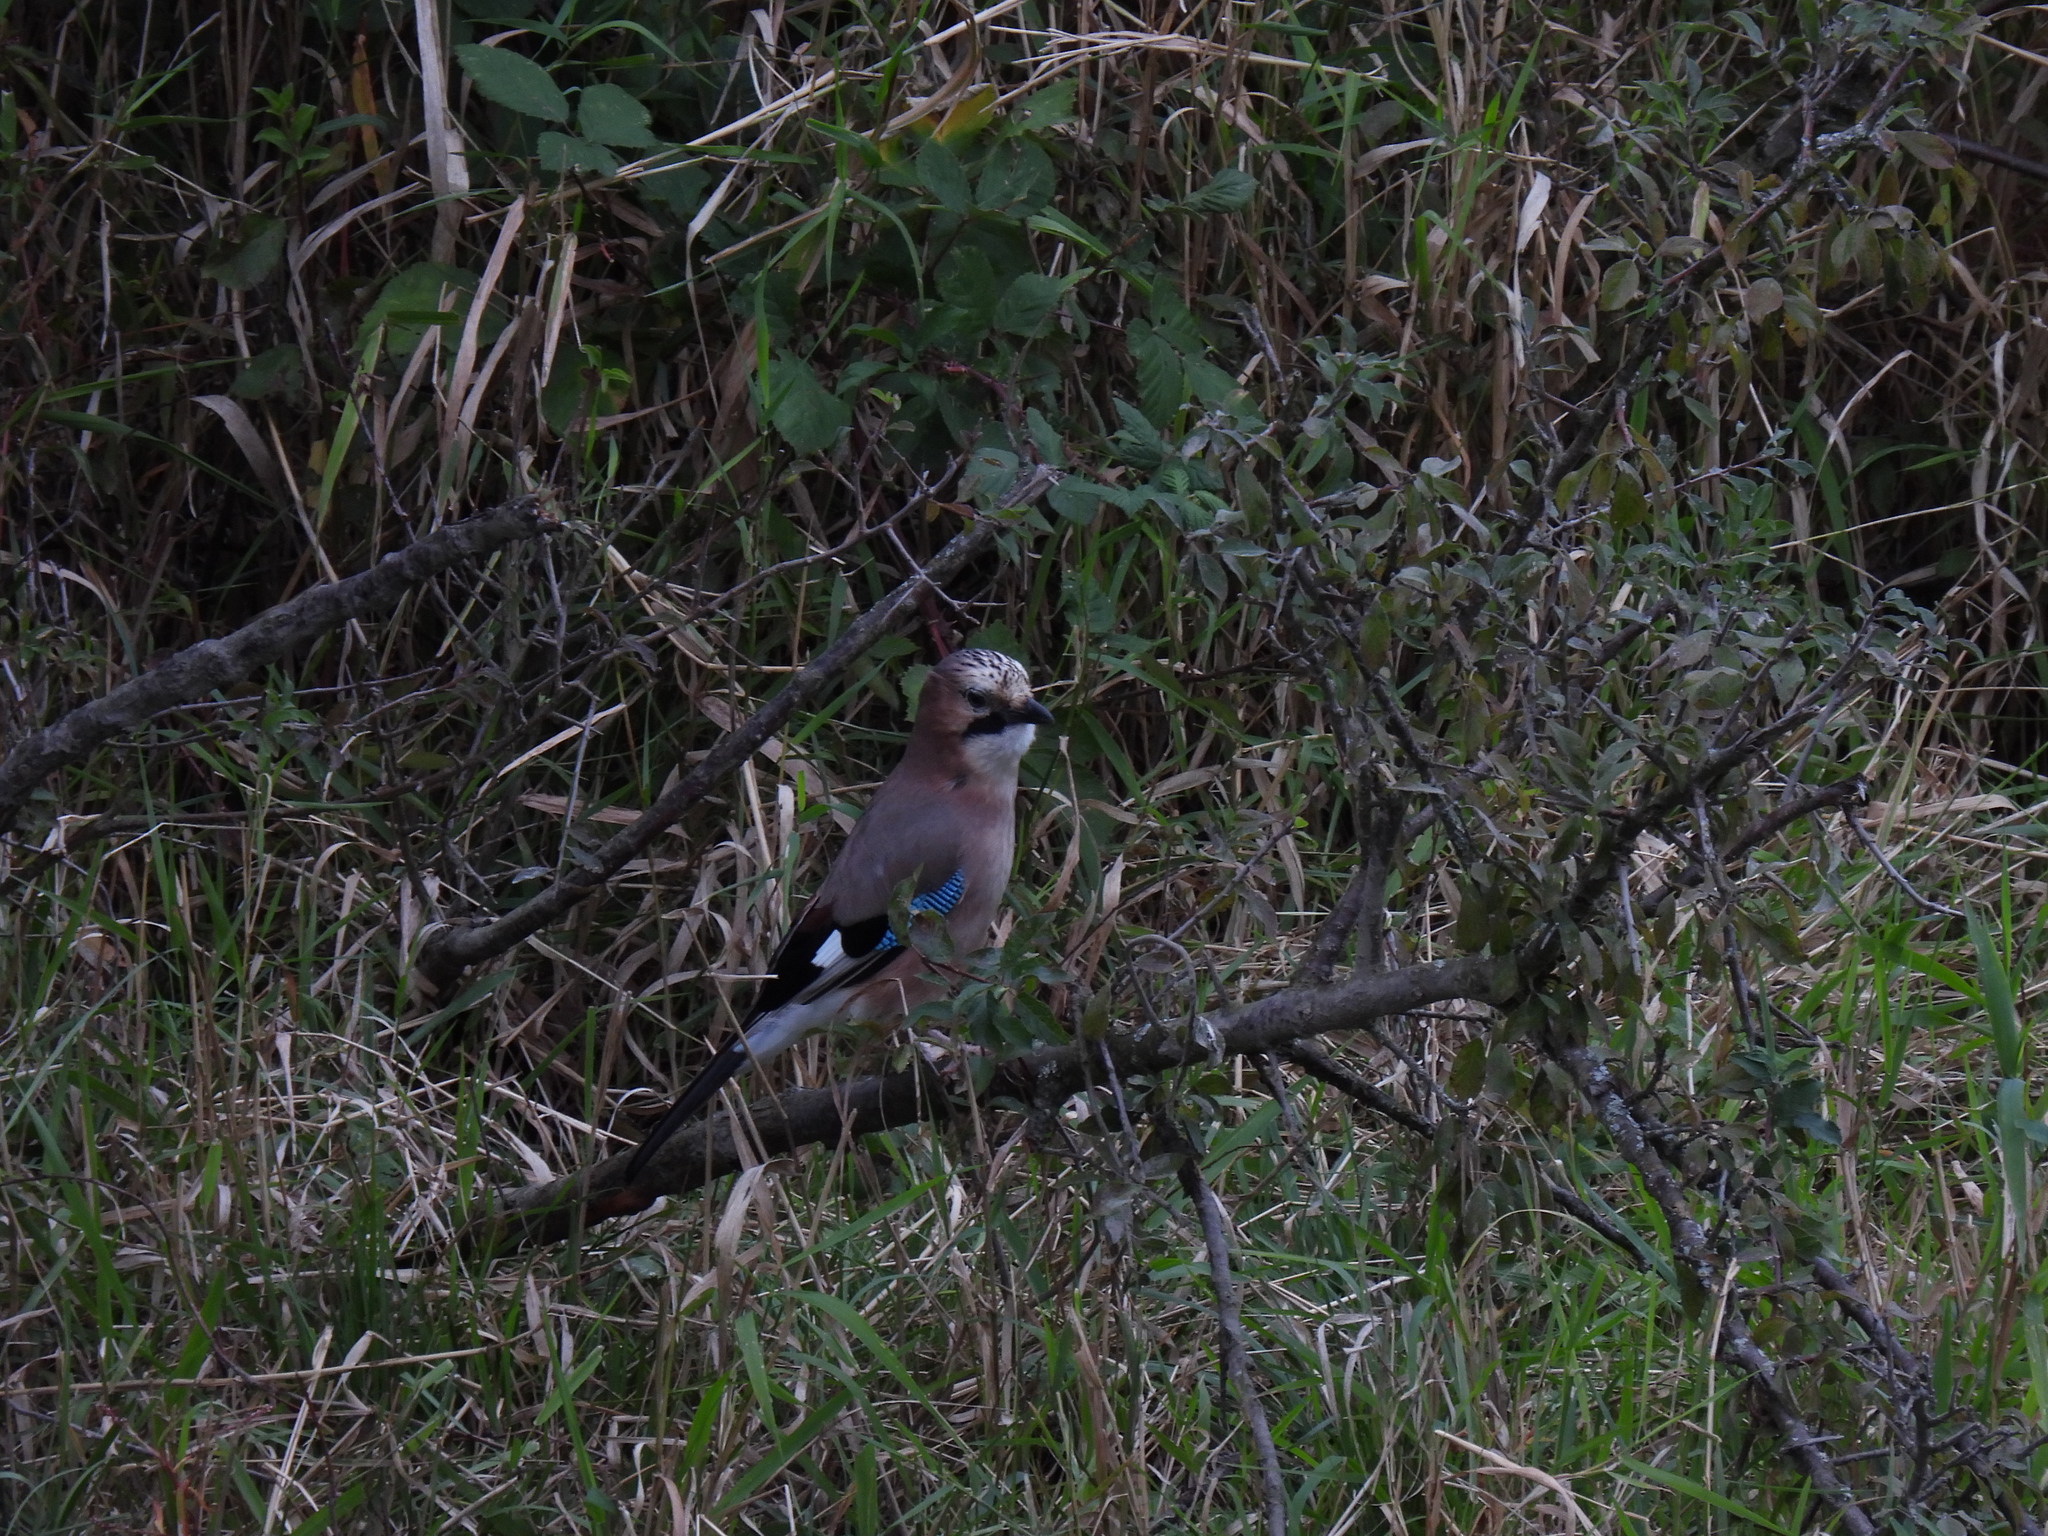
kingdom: Animalia
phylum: Chordata
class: Aves
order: Passeriformes
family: Corvidae
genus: Garrulus
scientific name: Garrulus glandarius
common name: Eurasian jay
